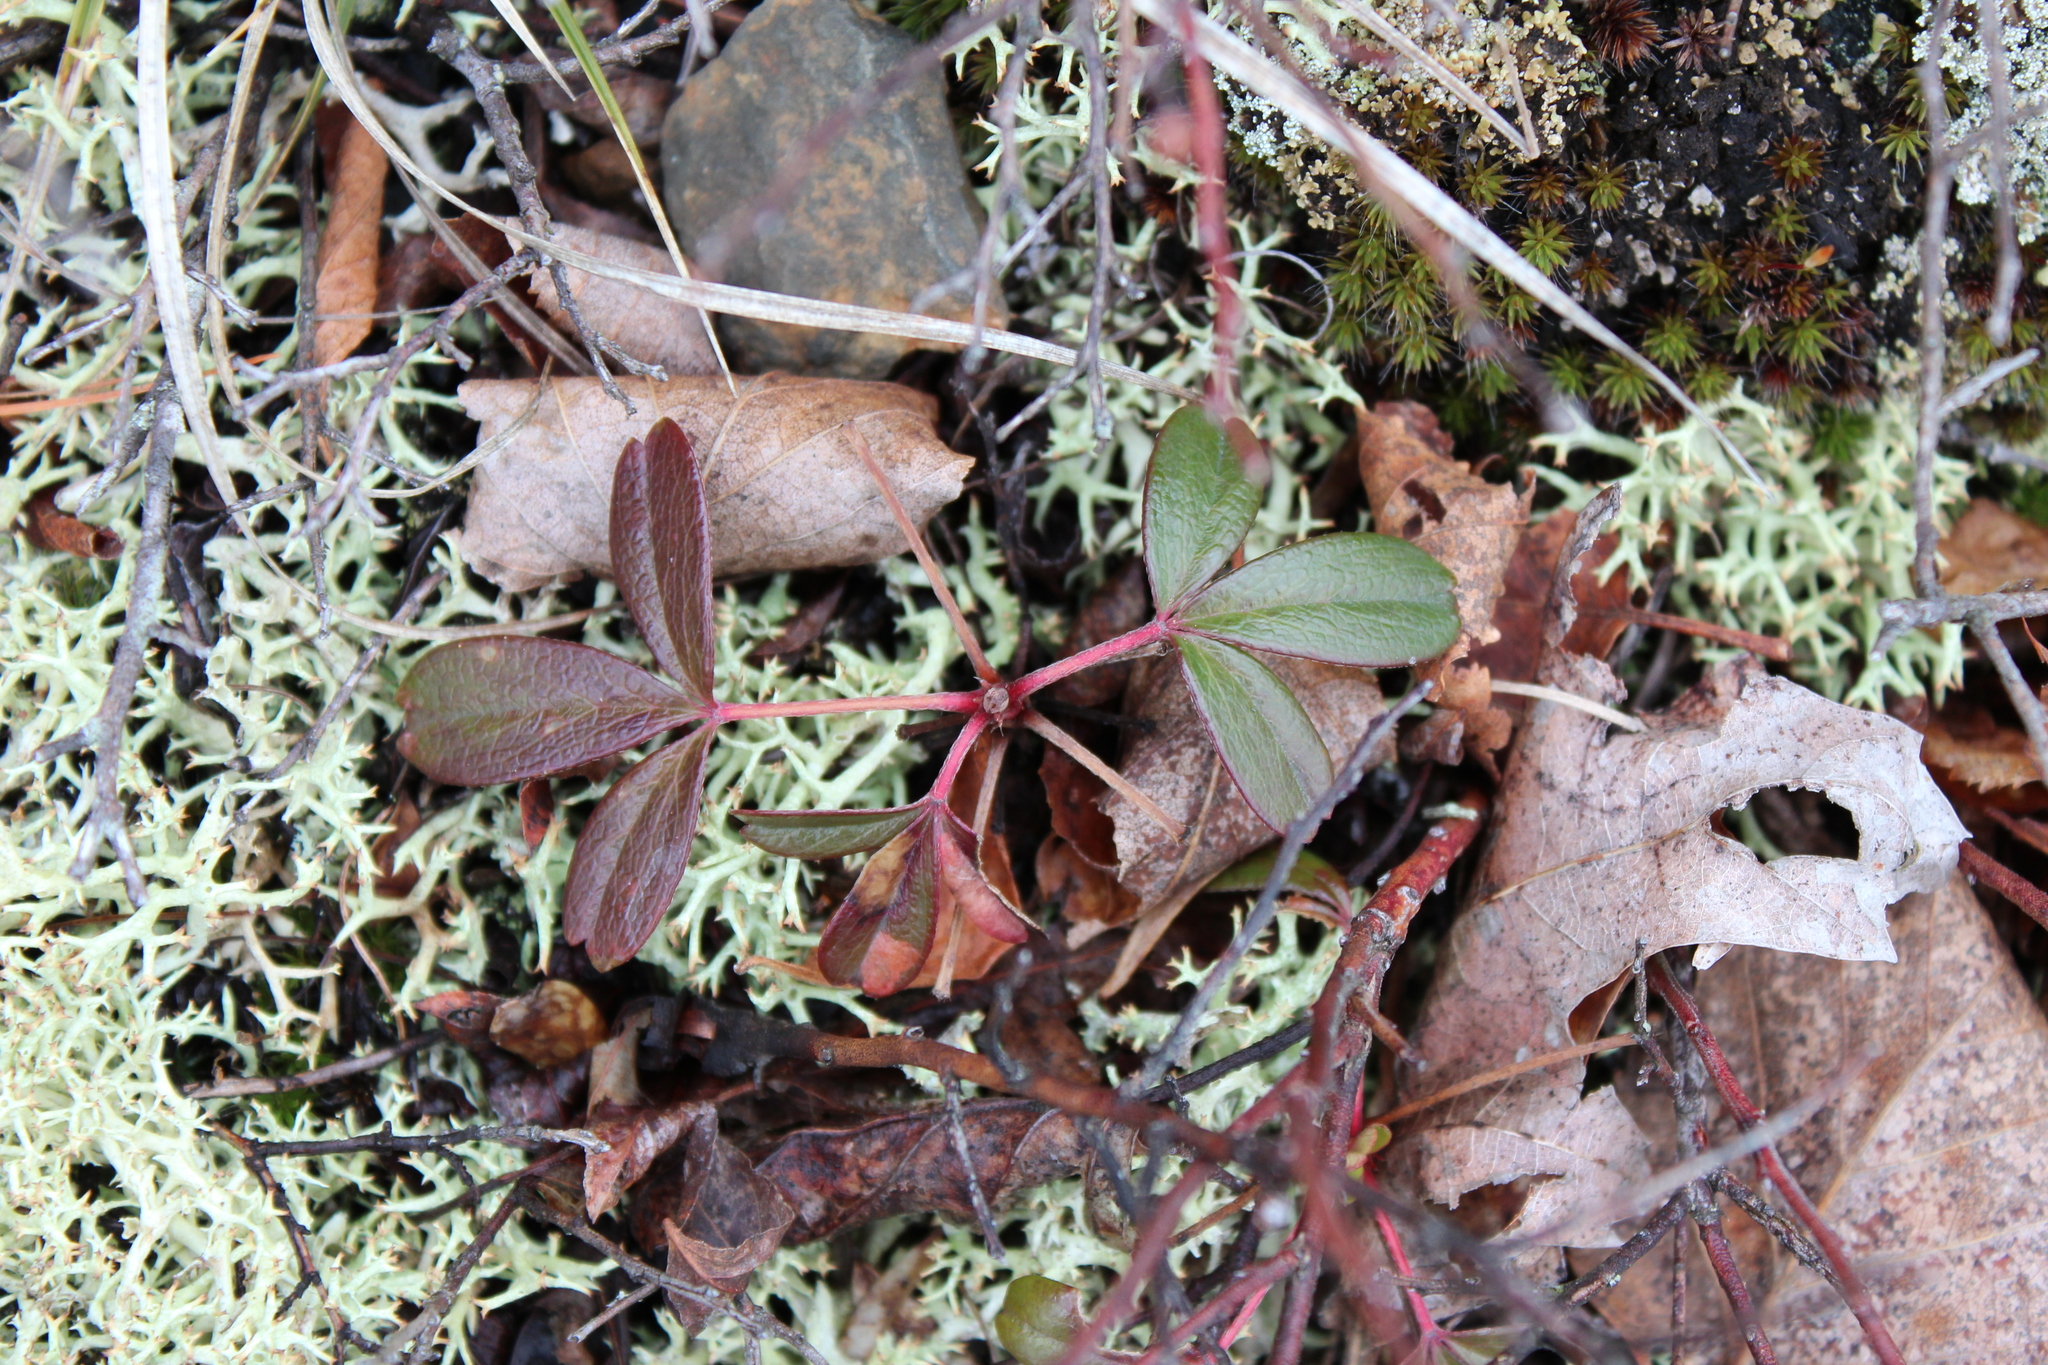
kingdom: Plantae
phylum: Tracheophyta
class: Magnoliopsida
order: Rosales
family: Rosaceae
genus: Sibbaldia
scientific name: Sibbaldia tridentata
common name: Three-toothed cinquefoil
